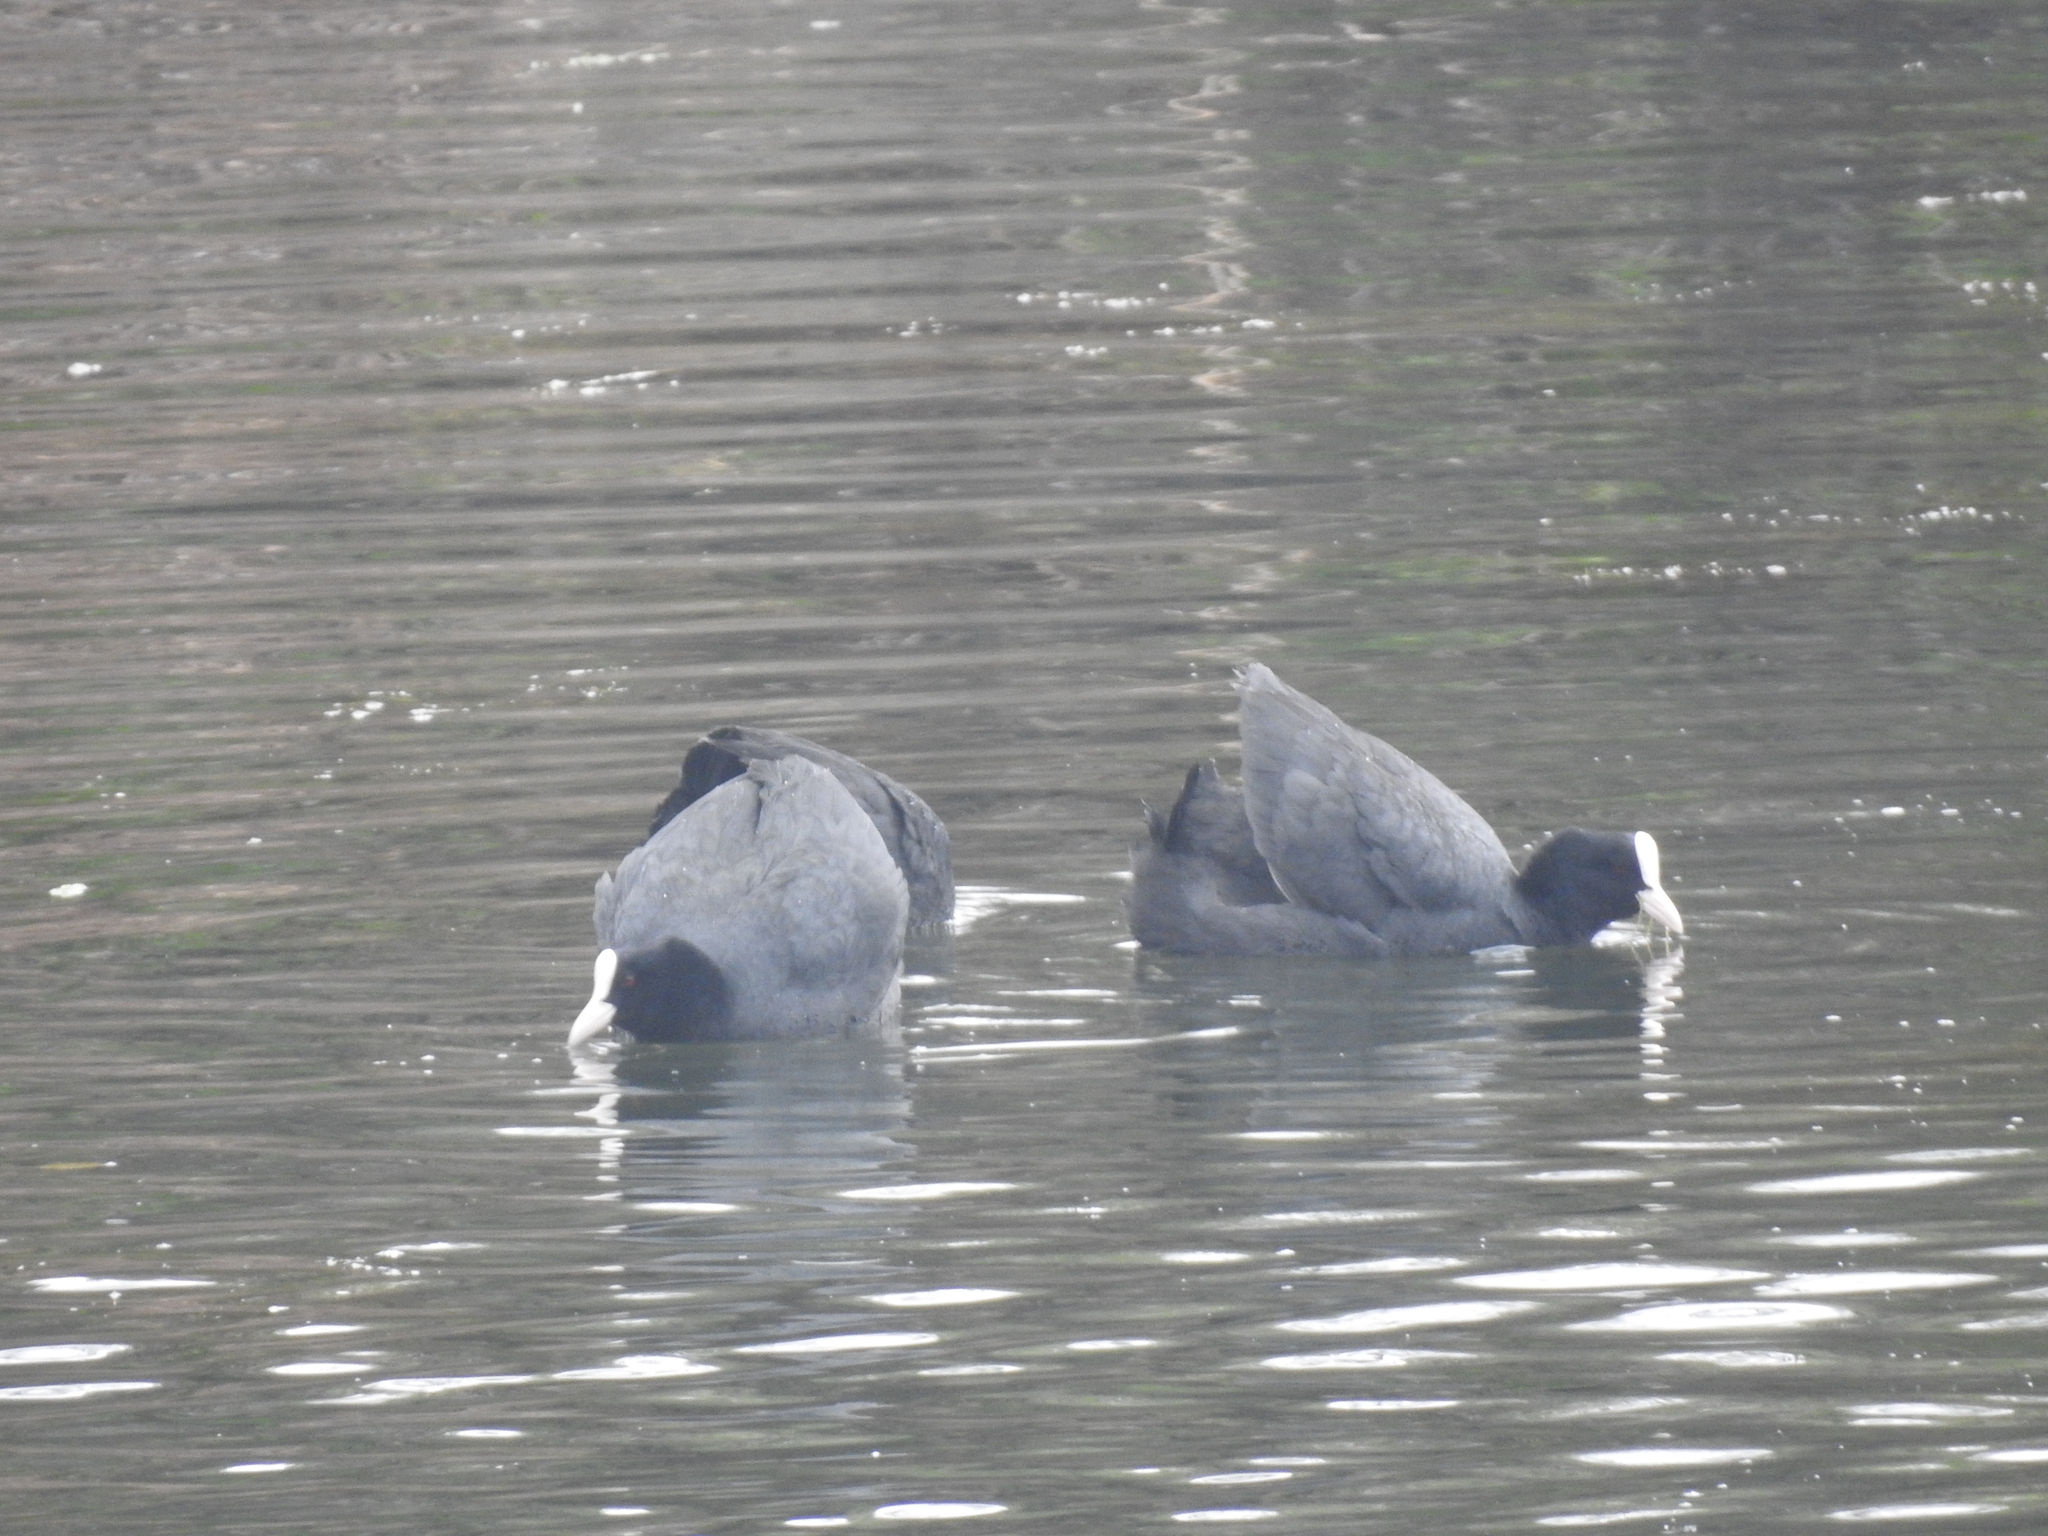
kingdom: Animalia
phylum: Chordata
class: Aves
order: Gruiformes
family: Rallidae
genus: Fulica
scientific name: Fulica atra
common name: Eurasian coot
